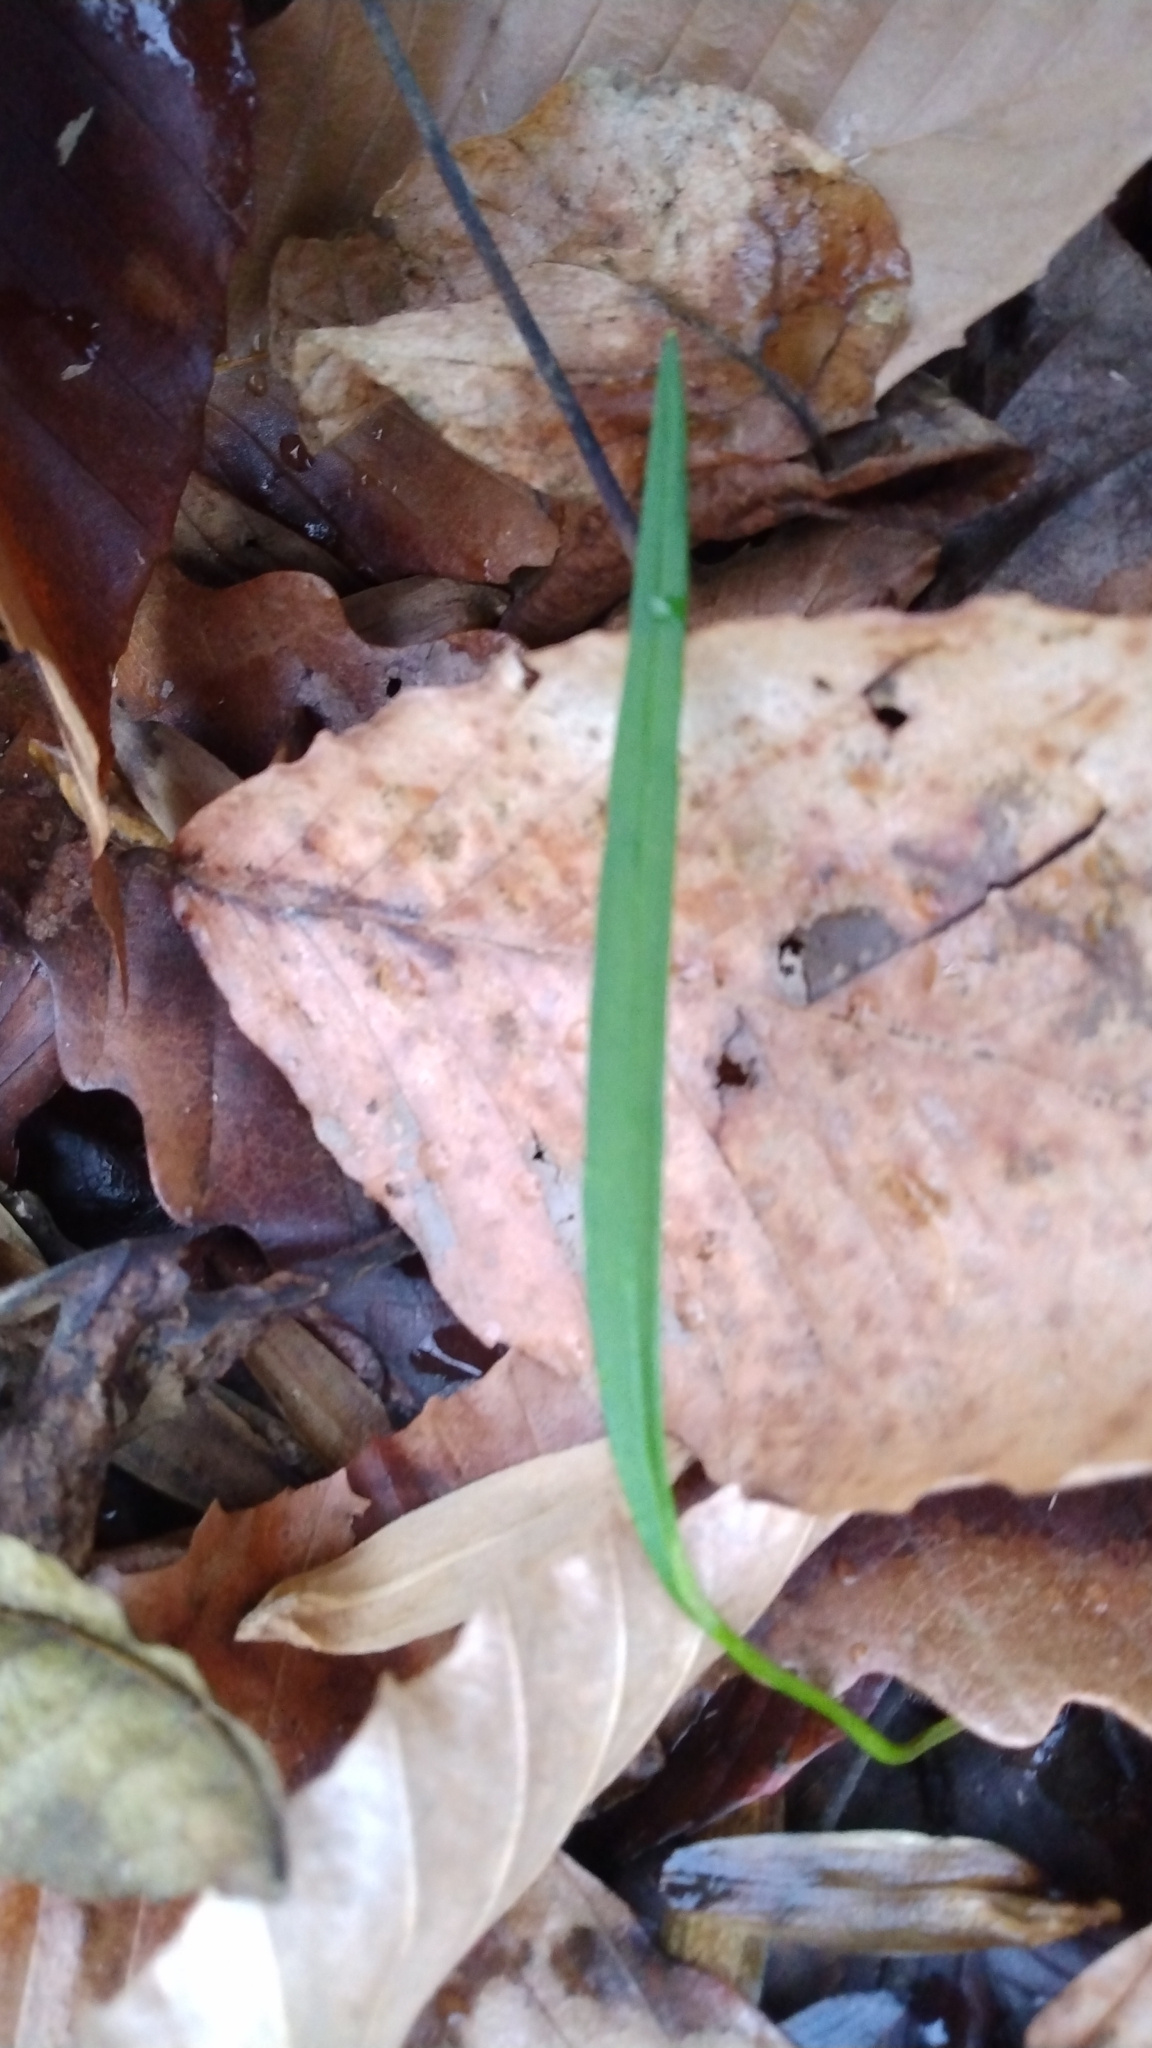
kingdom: Plantae
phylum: Tracheophyta
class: Magnoliopsida
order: Caryophyllales
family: Montiaceae
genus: Claytonia
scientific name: Claytonia virginica
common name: Virginia springbeauty
